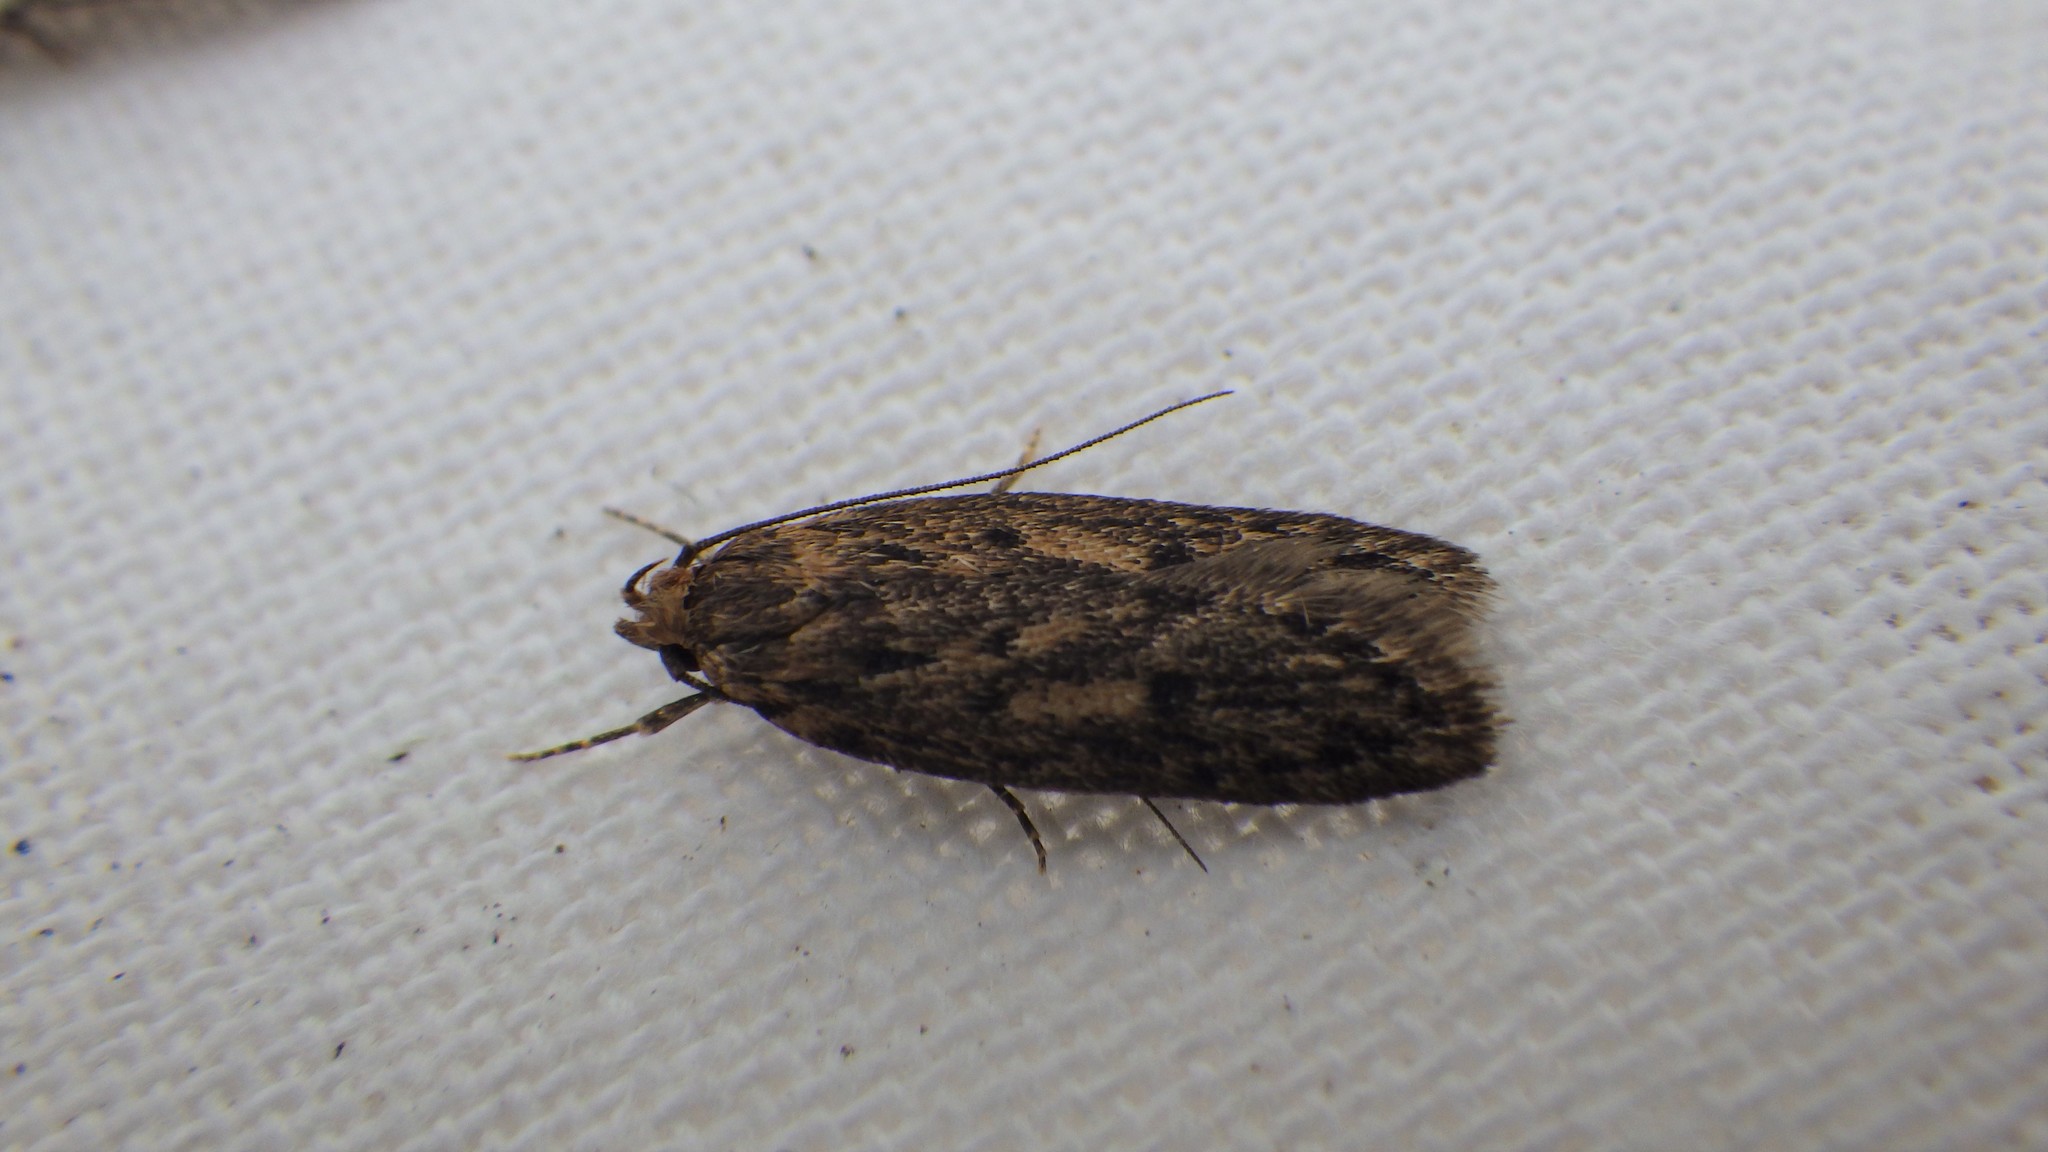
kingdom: Animalia
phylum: Arthropoda
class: Insecta
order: Lepidoptera
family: Oecophoridae
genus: Hofmannophila
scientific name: Hofmannophila pseudospretella
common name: Brown house moth
